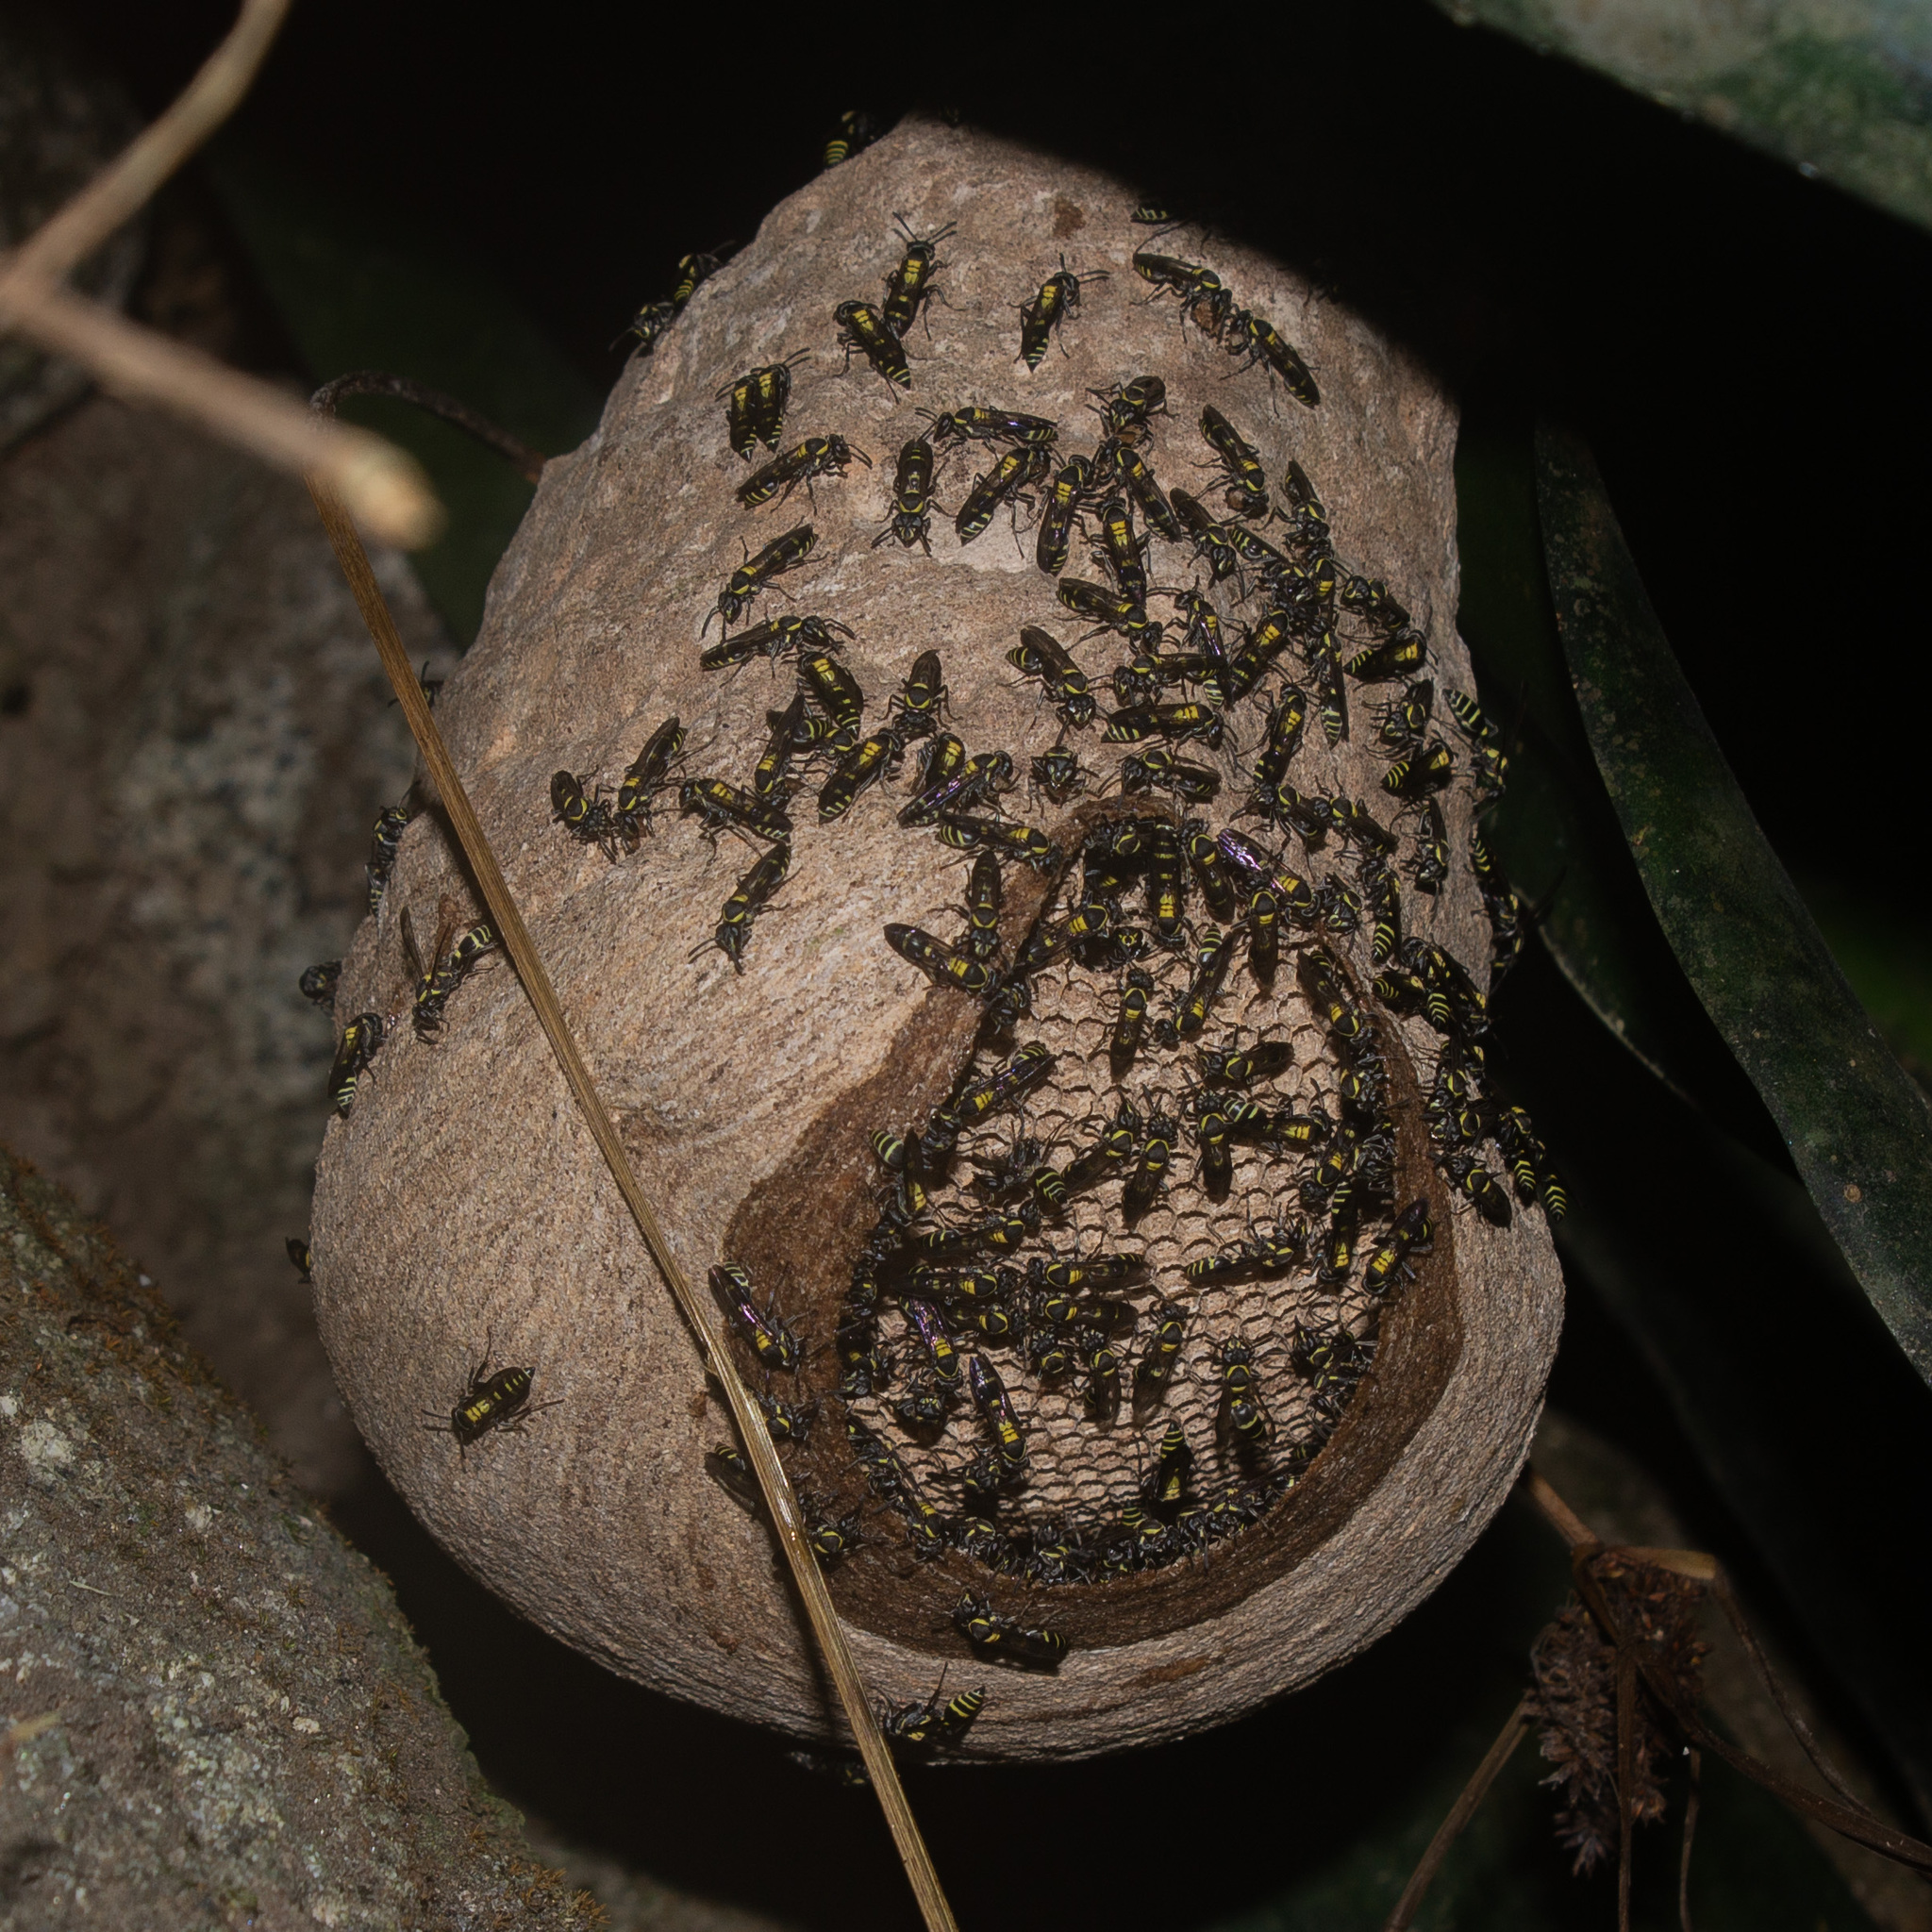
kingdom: Animalia
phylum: Arthropoda
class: Insecta
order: Hymenoptera
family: Eumenidae
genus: Polybia
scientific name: Polybia occidentalis
